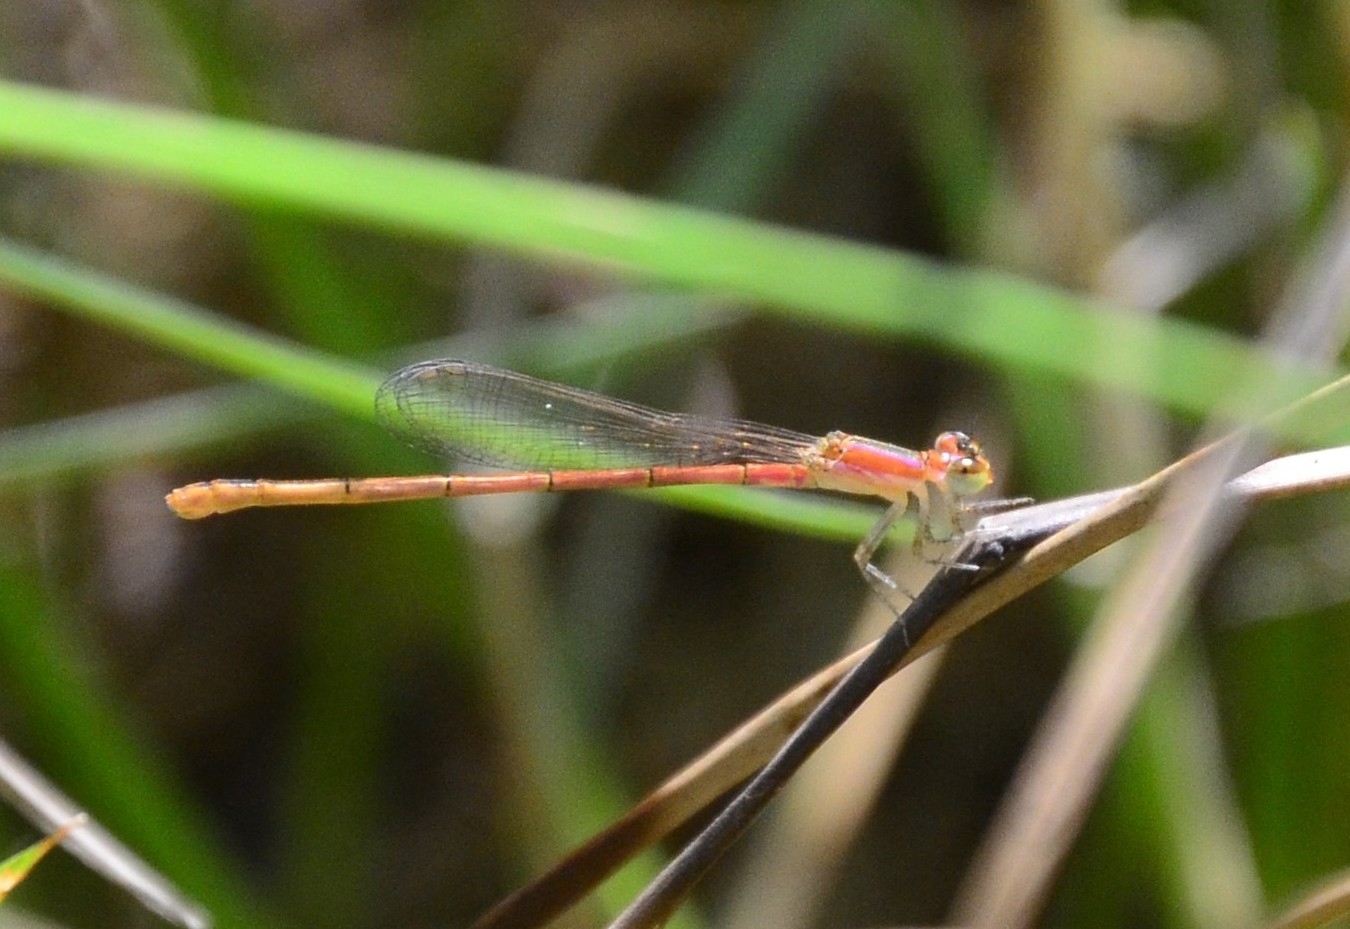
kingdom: Animalia
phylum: Arthropoda
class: Insecta
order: Odonata
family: Coenagrionidae
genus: Agriocnemis
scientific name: Agriocnemis pygmaea
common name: Pygmy wisp
